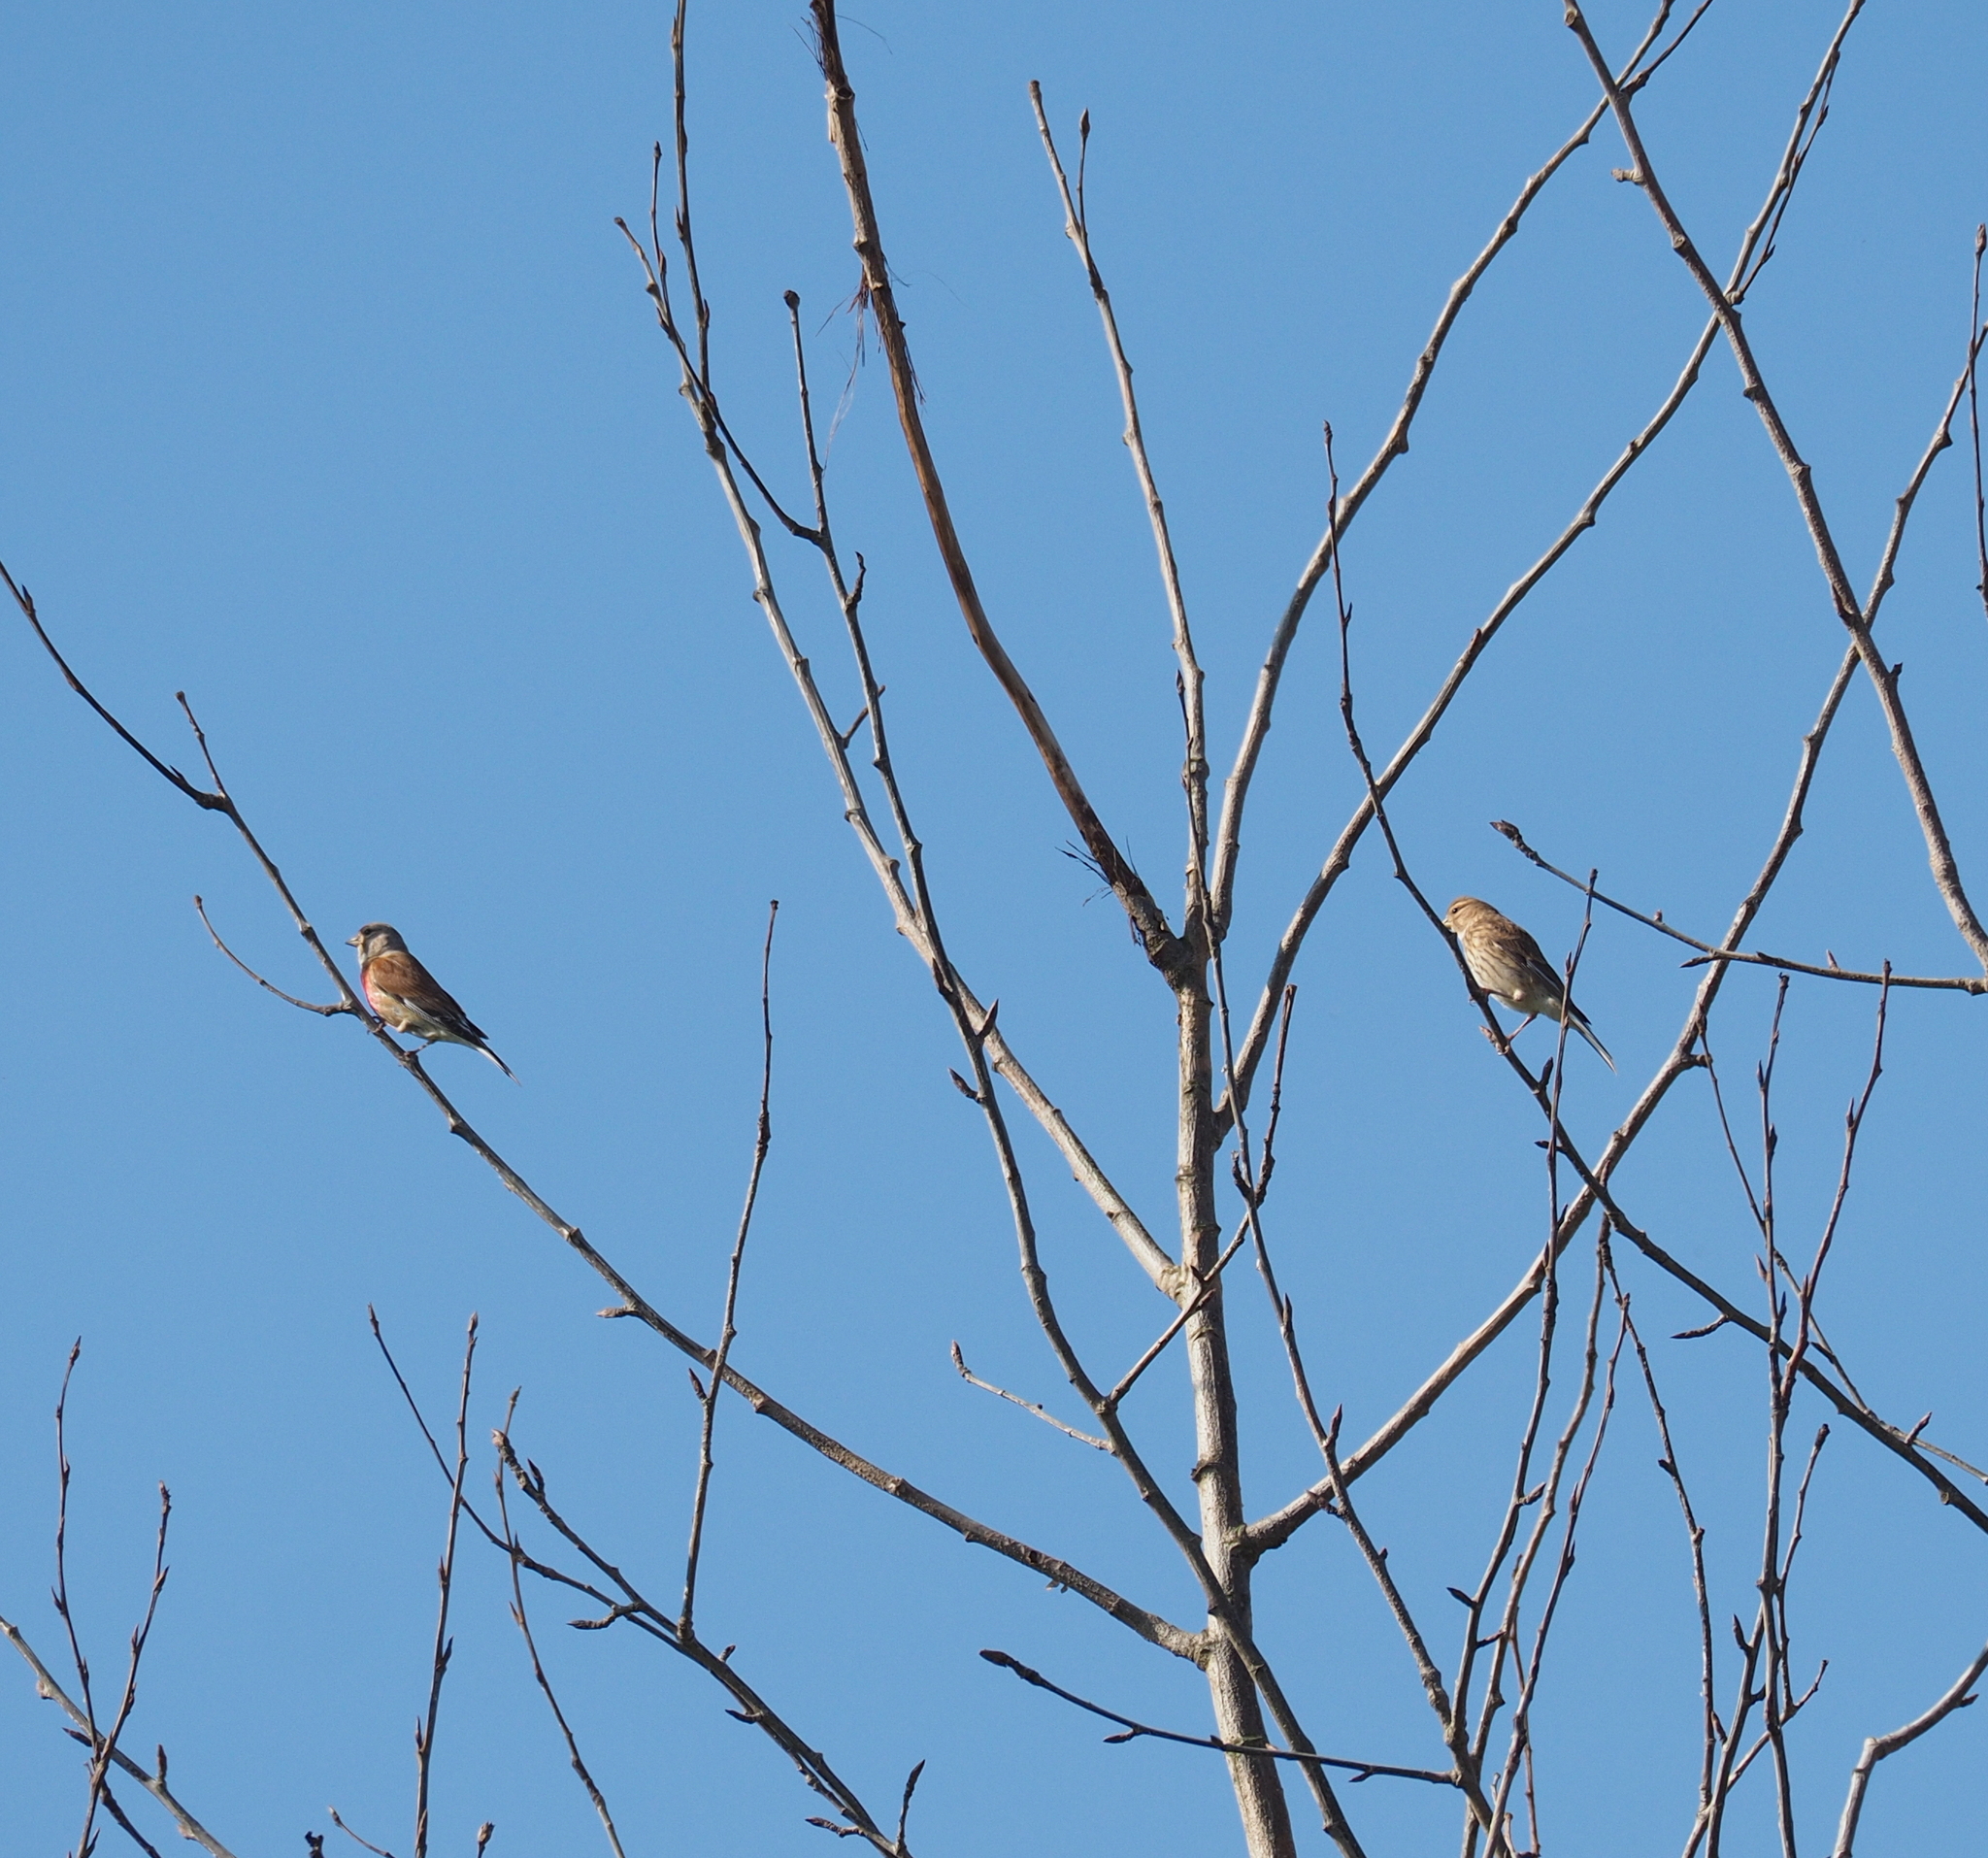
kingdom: Animalia
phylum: Chordata
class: Aves
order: Passeriformes
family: Fringillidae
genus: Linaria
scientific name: Linaria cannabina
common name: Common linnet
